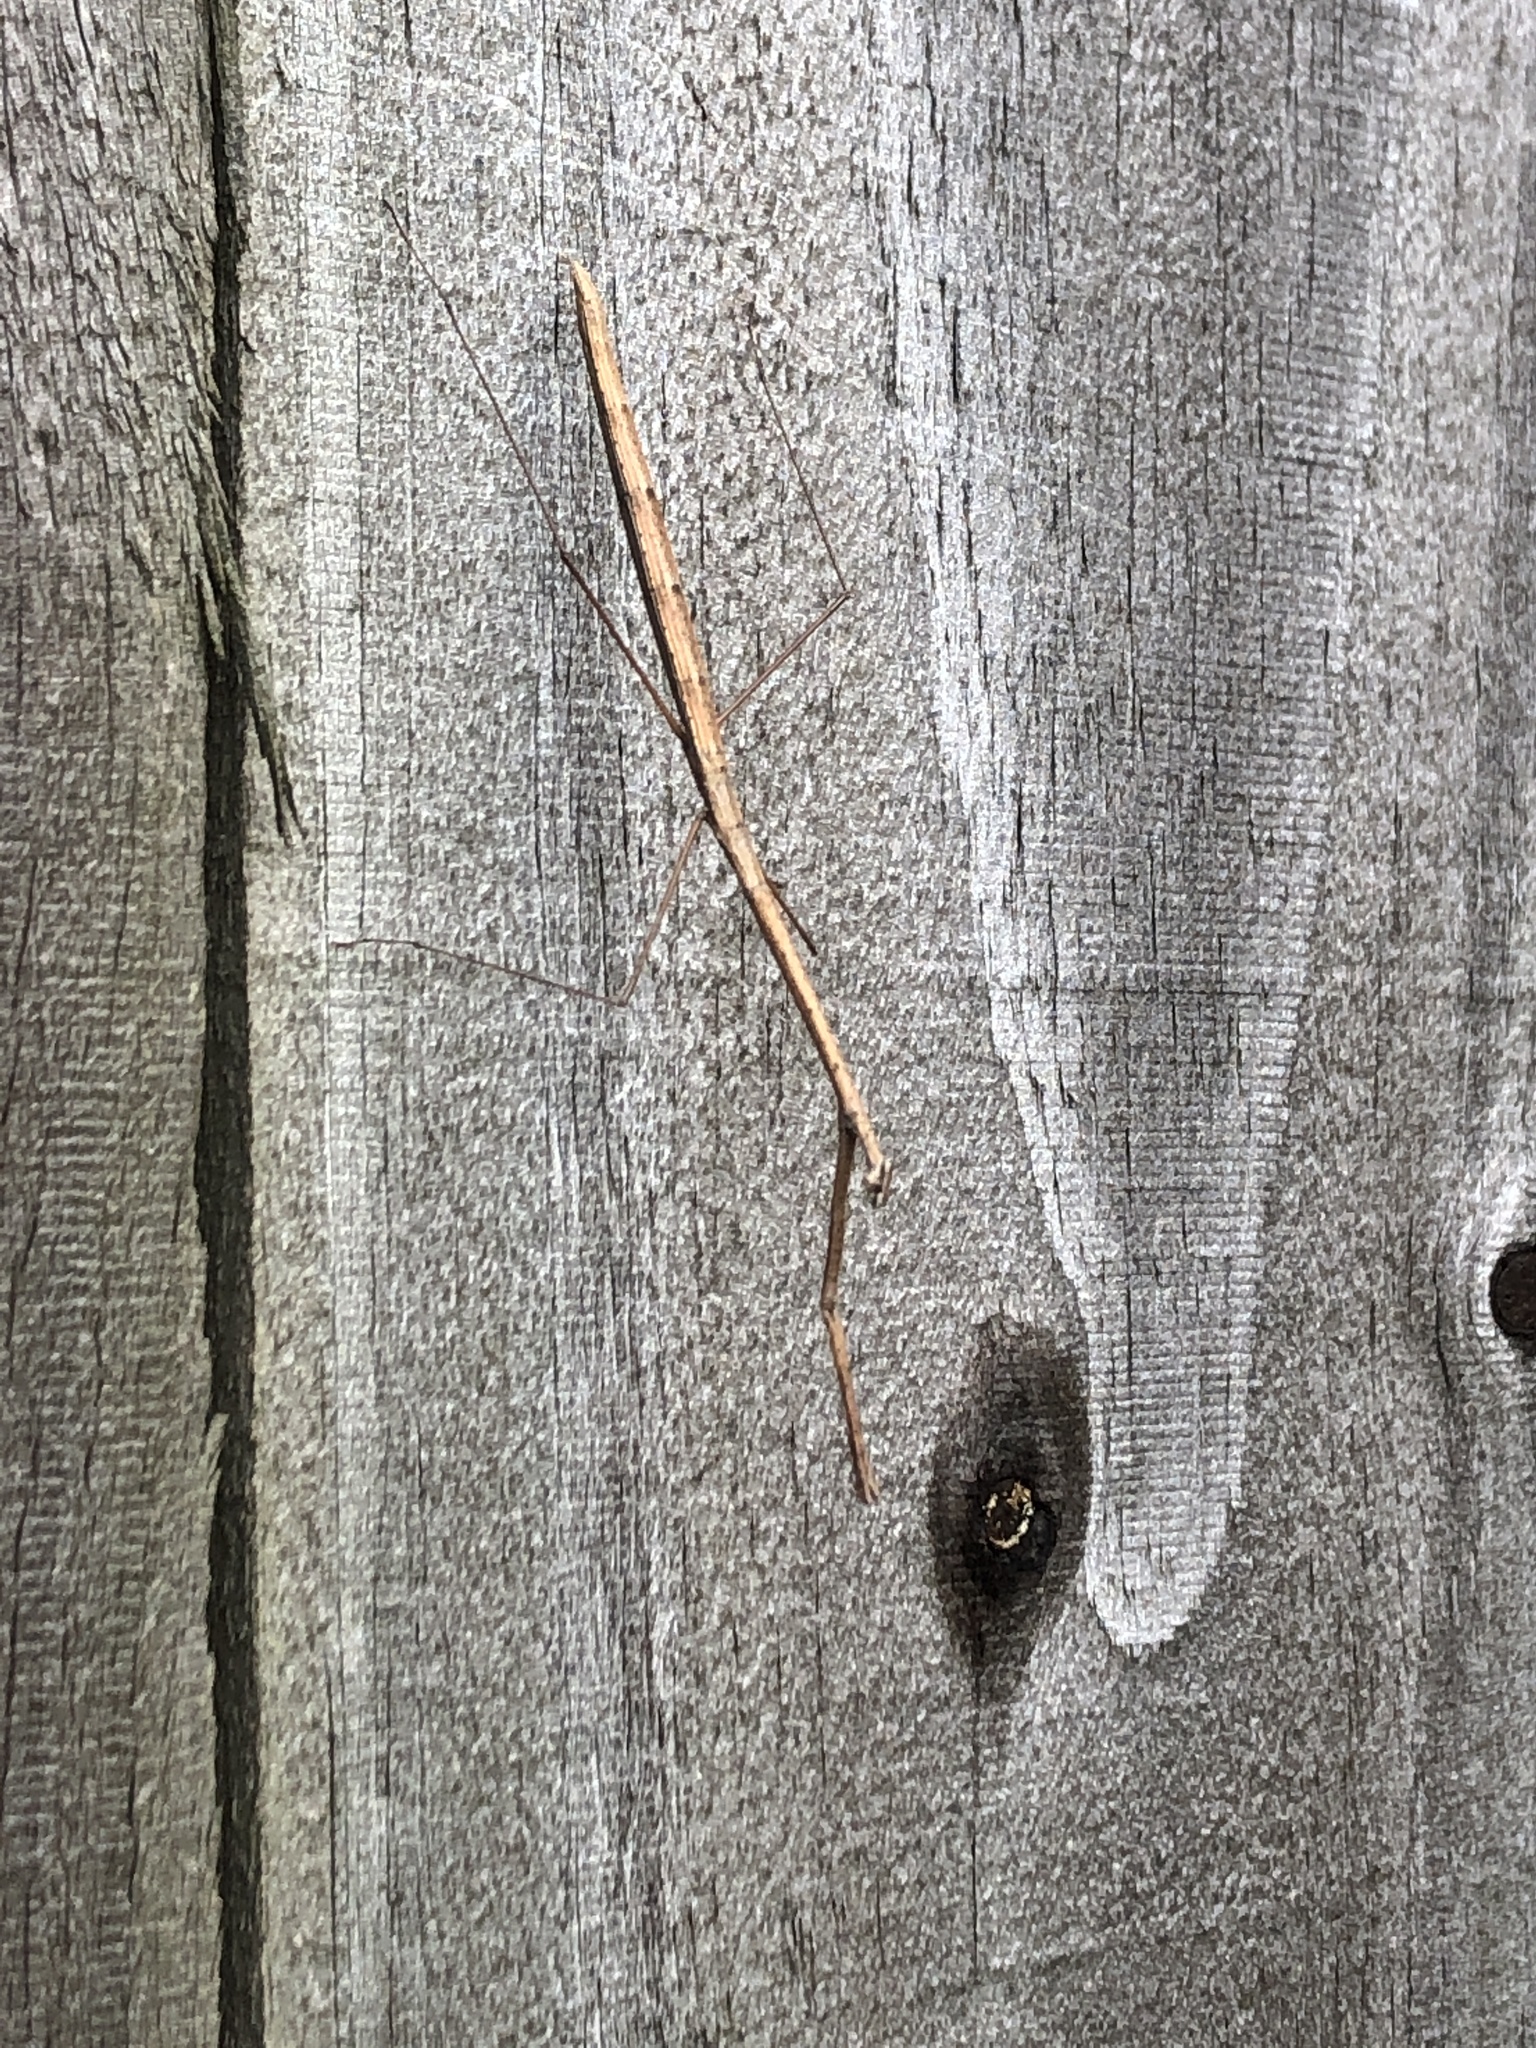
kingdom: Animalia
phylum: Arthropoda
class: Insecta
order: Mantodea
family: Thespidae
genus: Thesprotia
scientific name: Thesprotia graminis
